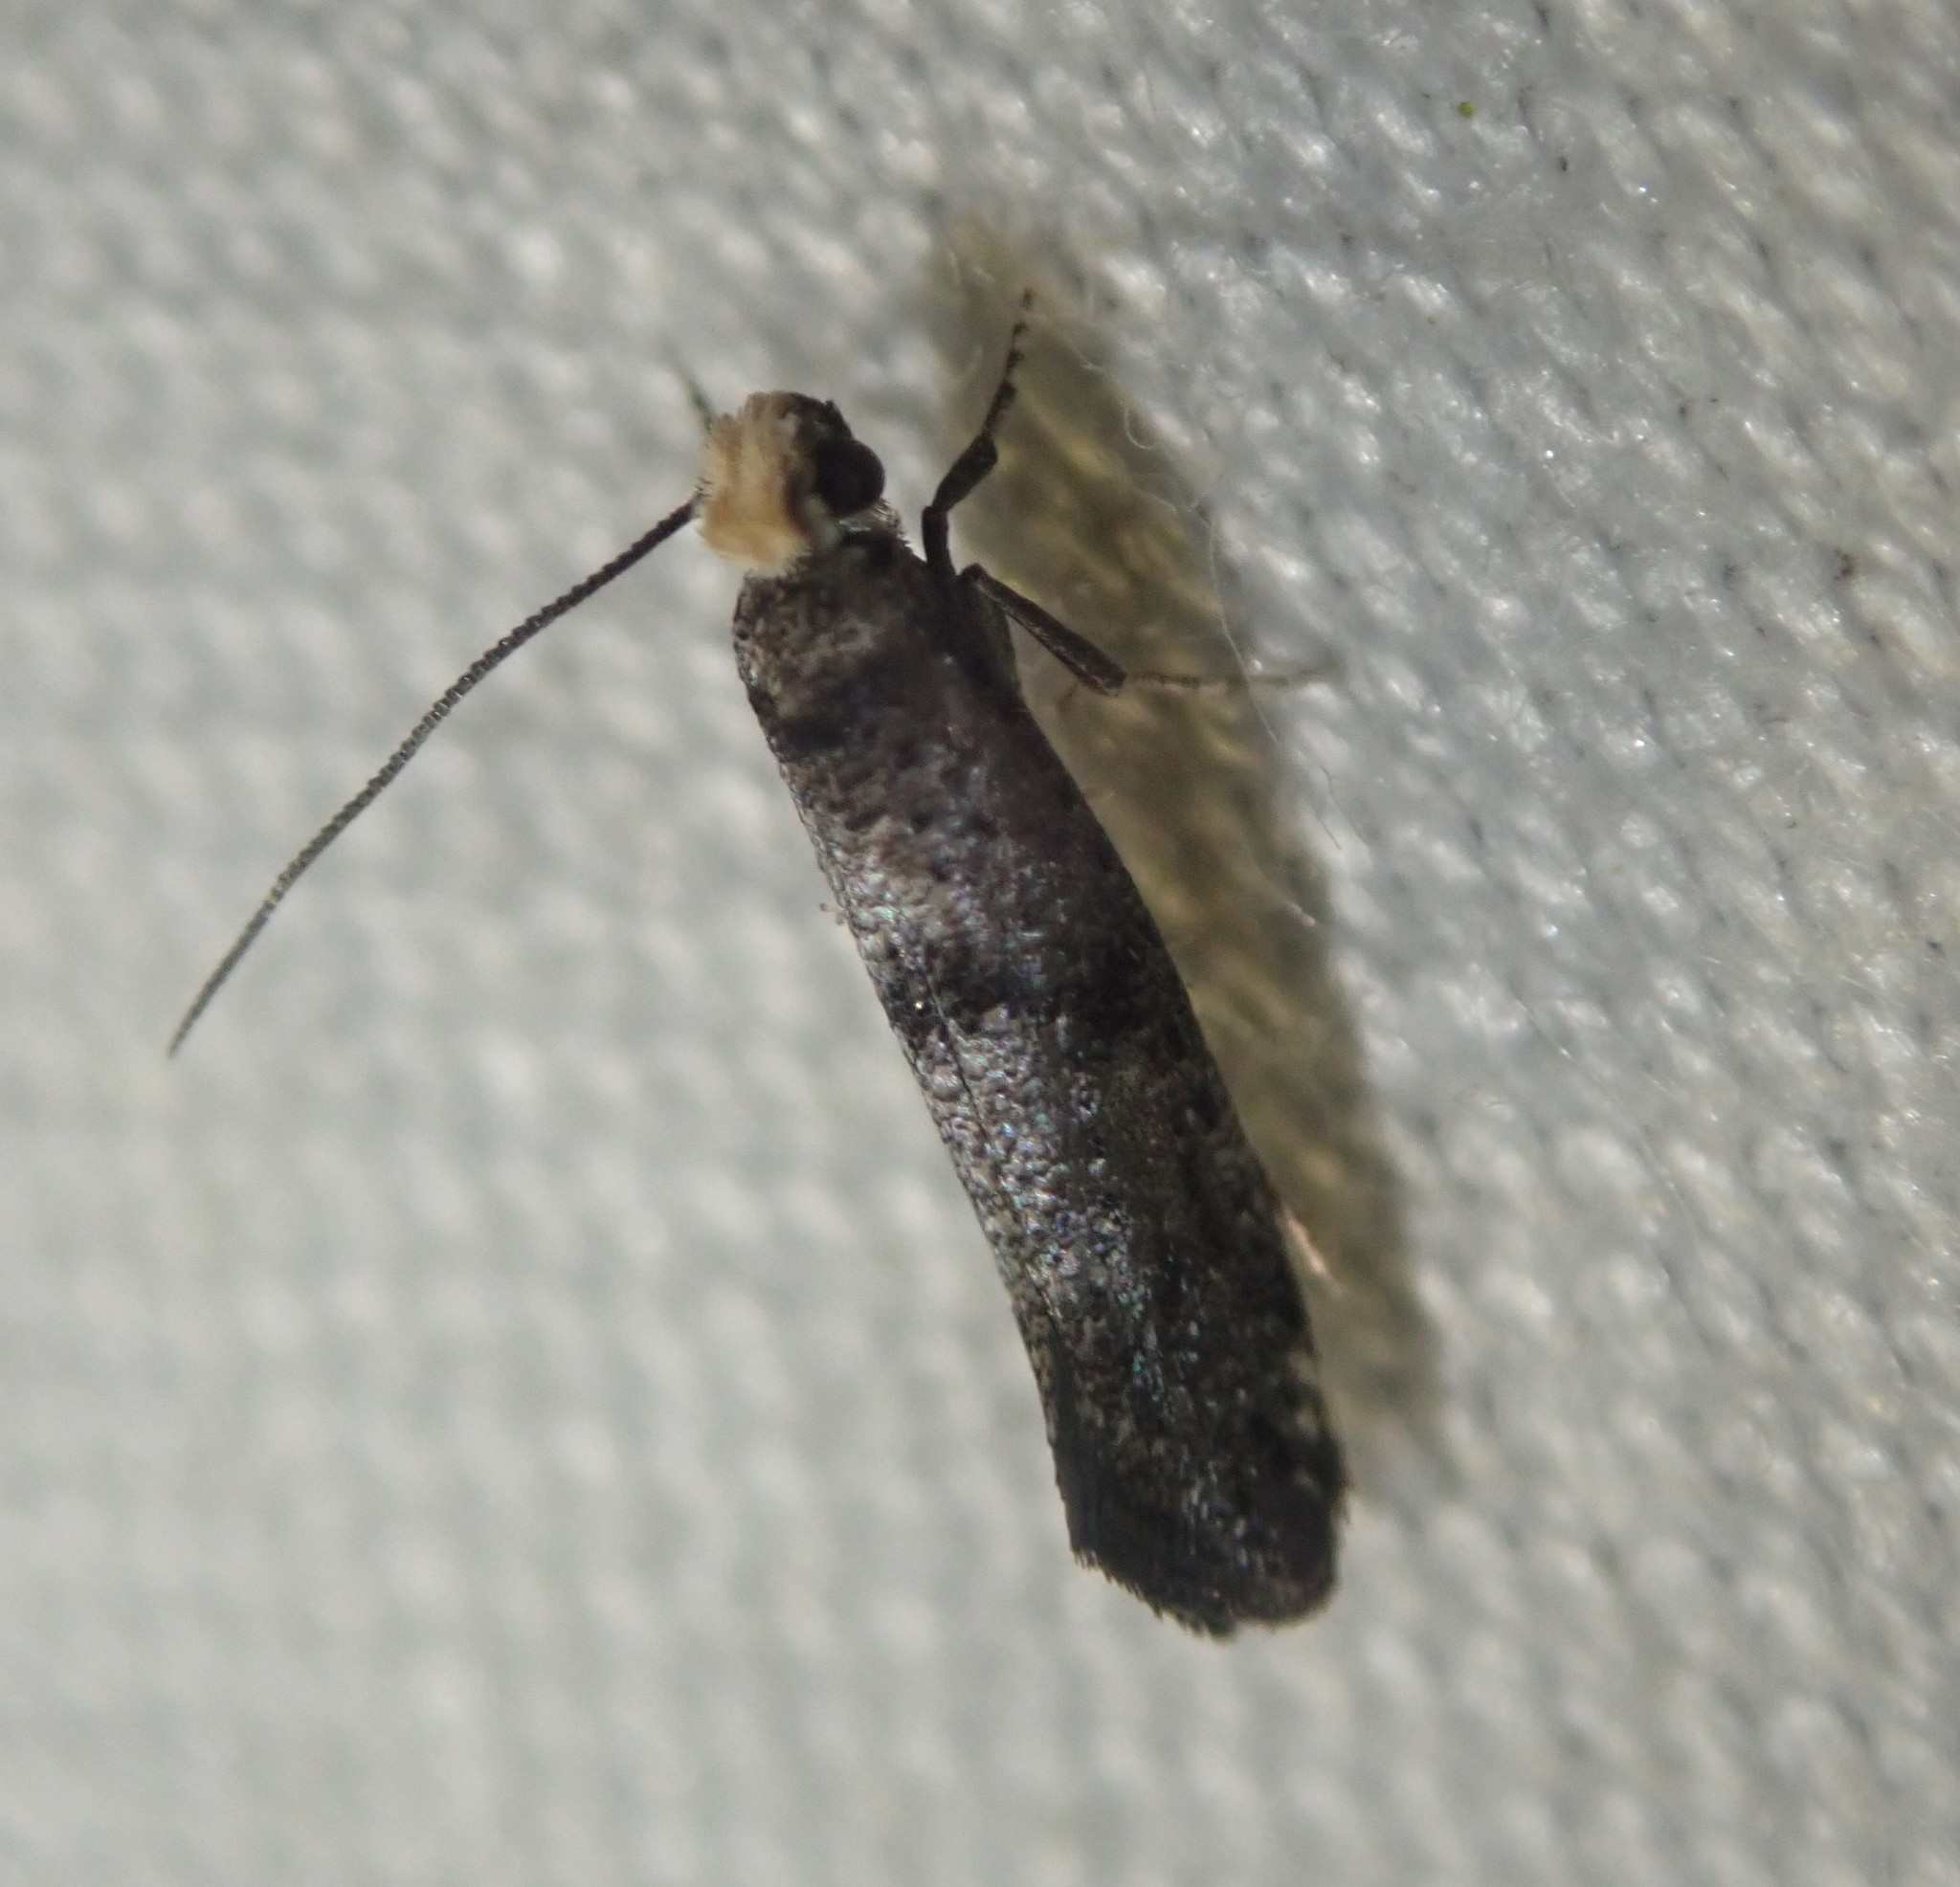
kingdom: Animalia
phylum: Arthropoda
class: Insecta
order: Lepidoptera
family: Yponomeutidae
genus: Paraswammerdamia
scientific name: Paraswammerdamia lutarea
